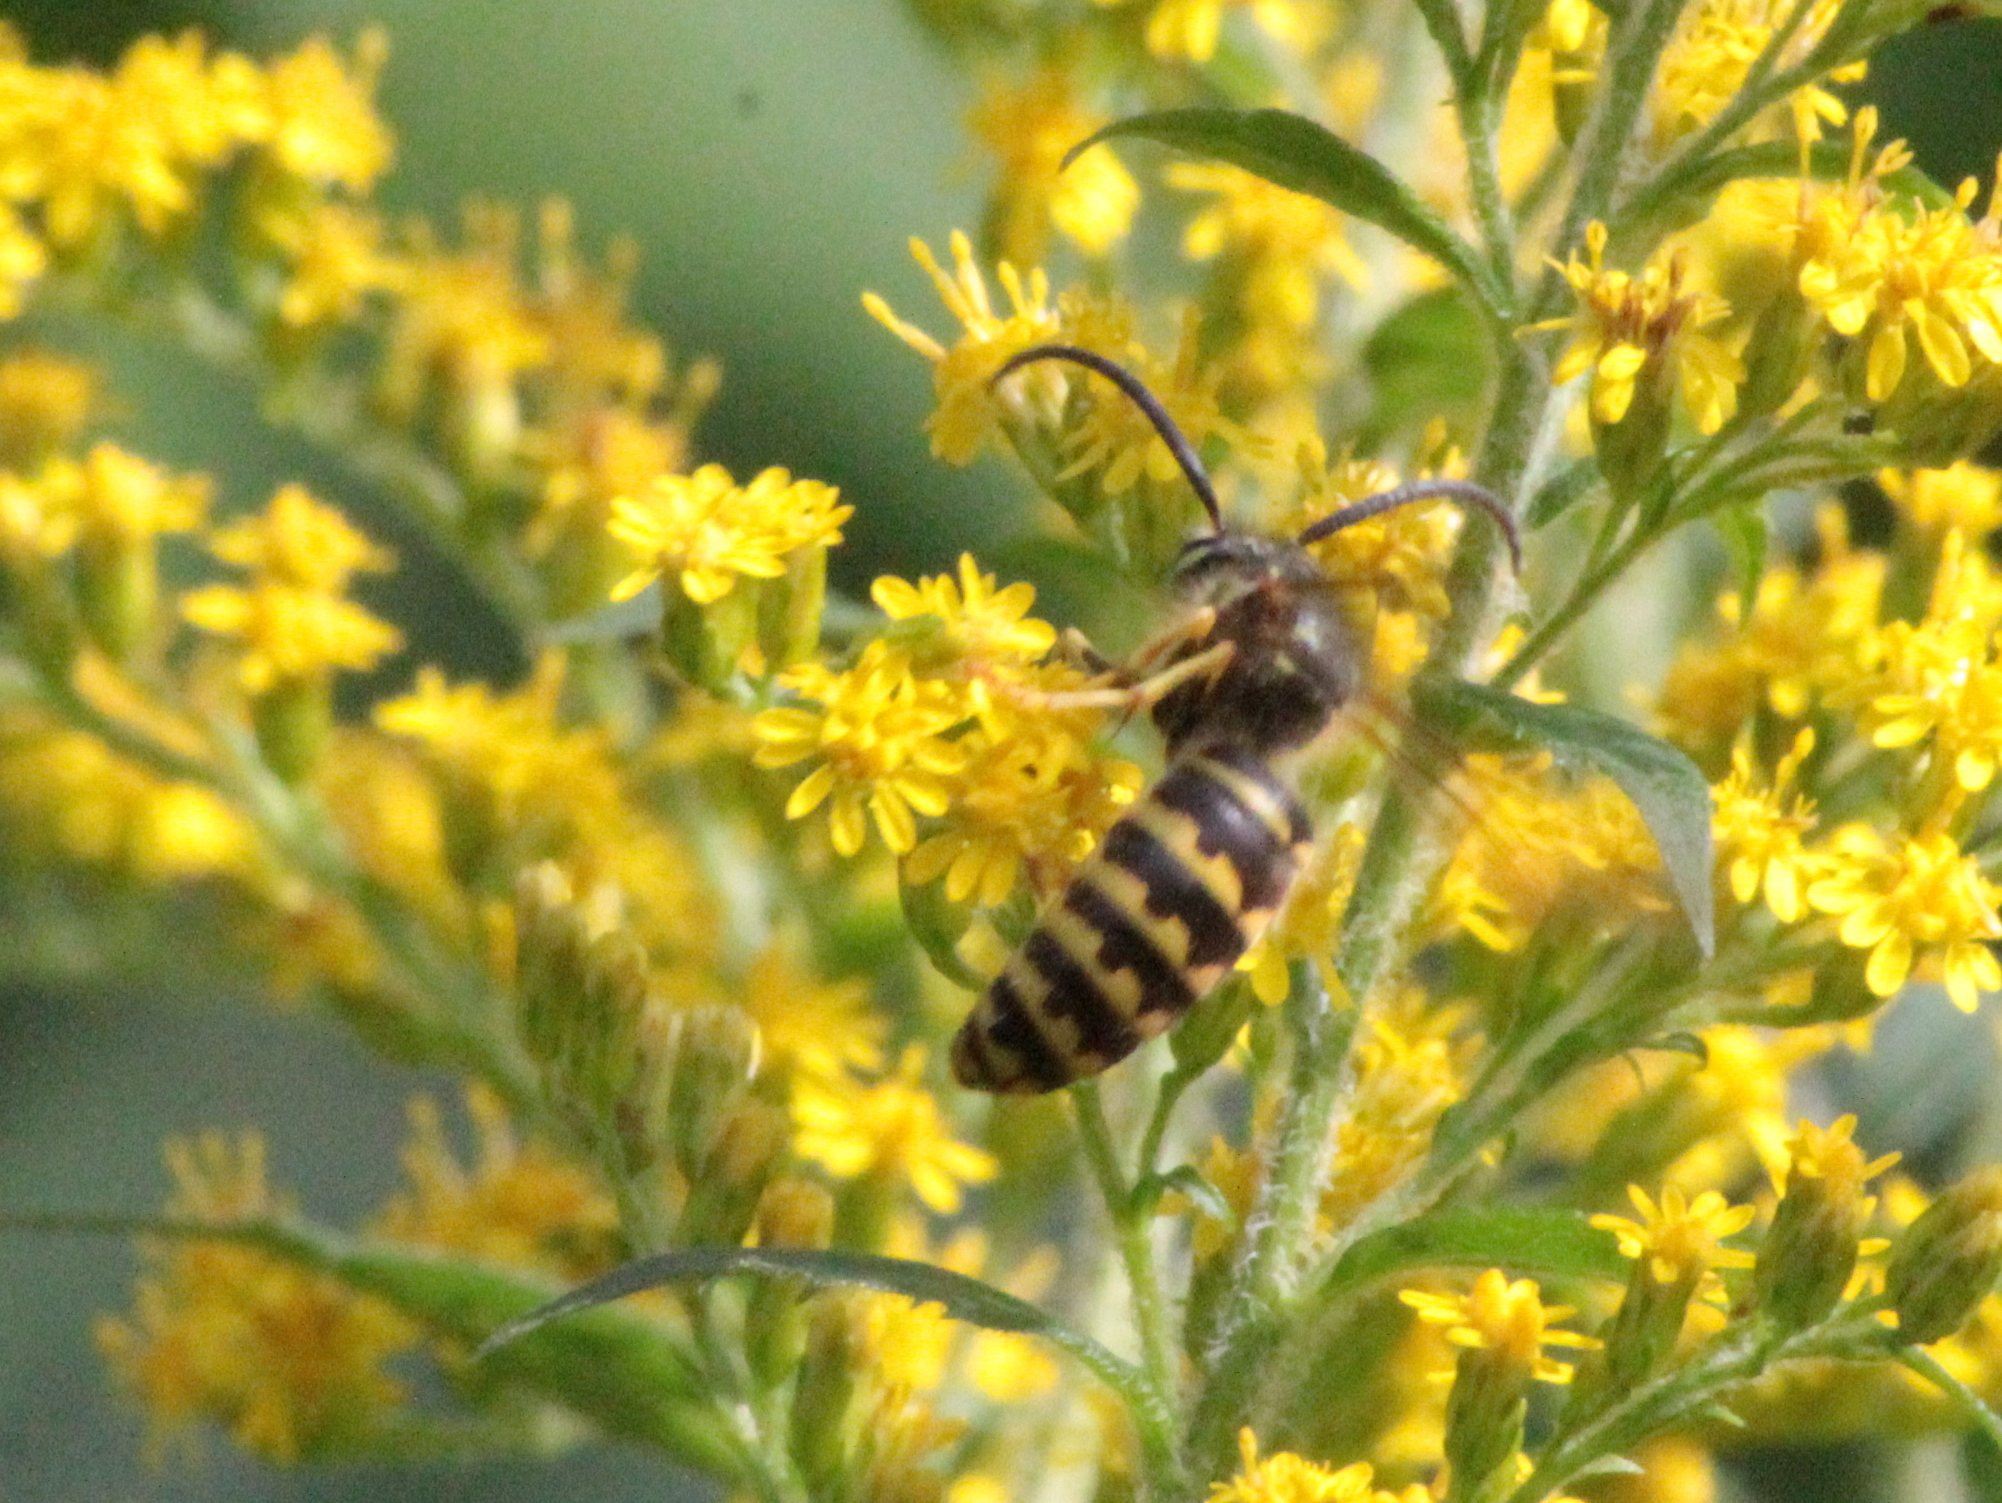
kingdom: Animalia
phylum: Arthropoda
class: Insecta
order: Hymenoptera
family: Vespidae
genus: Dolichovespula
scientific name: Dolichovespula arenaria
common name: Aerial yellowjacket
